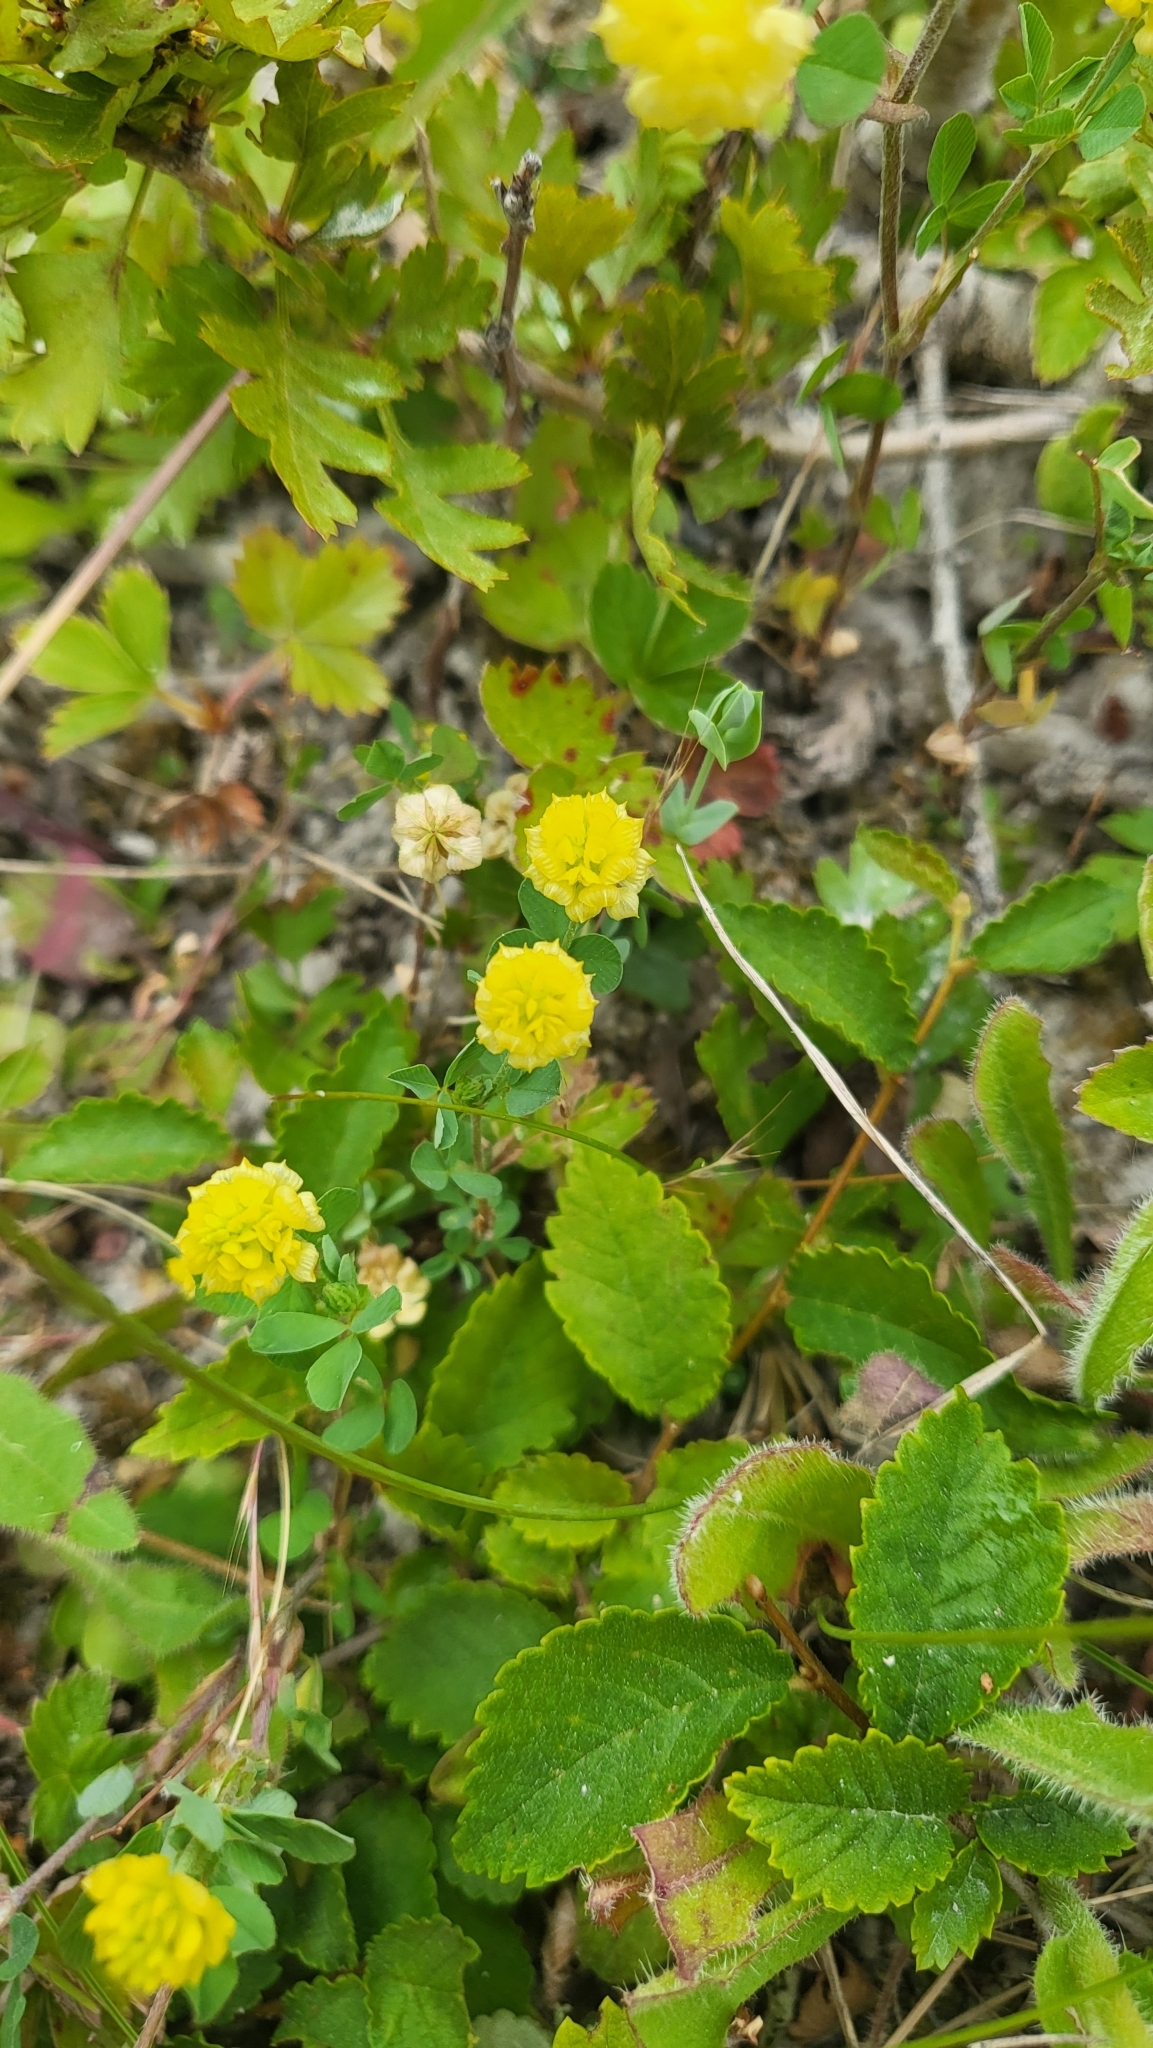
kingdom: Plantae
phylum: Tracheophyta
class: Magnoliopsida
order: Fabales
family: Fabaceae
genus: Trifolium
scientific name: Trifolium campestre
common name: Field clover
